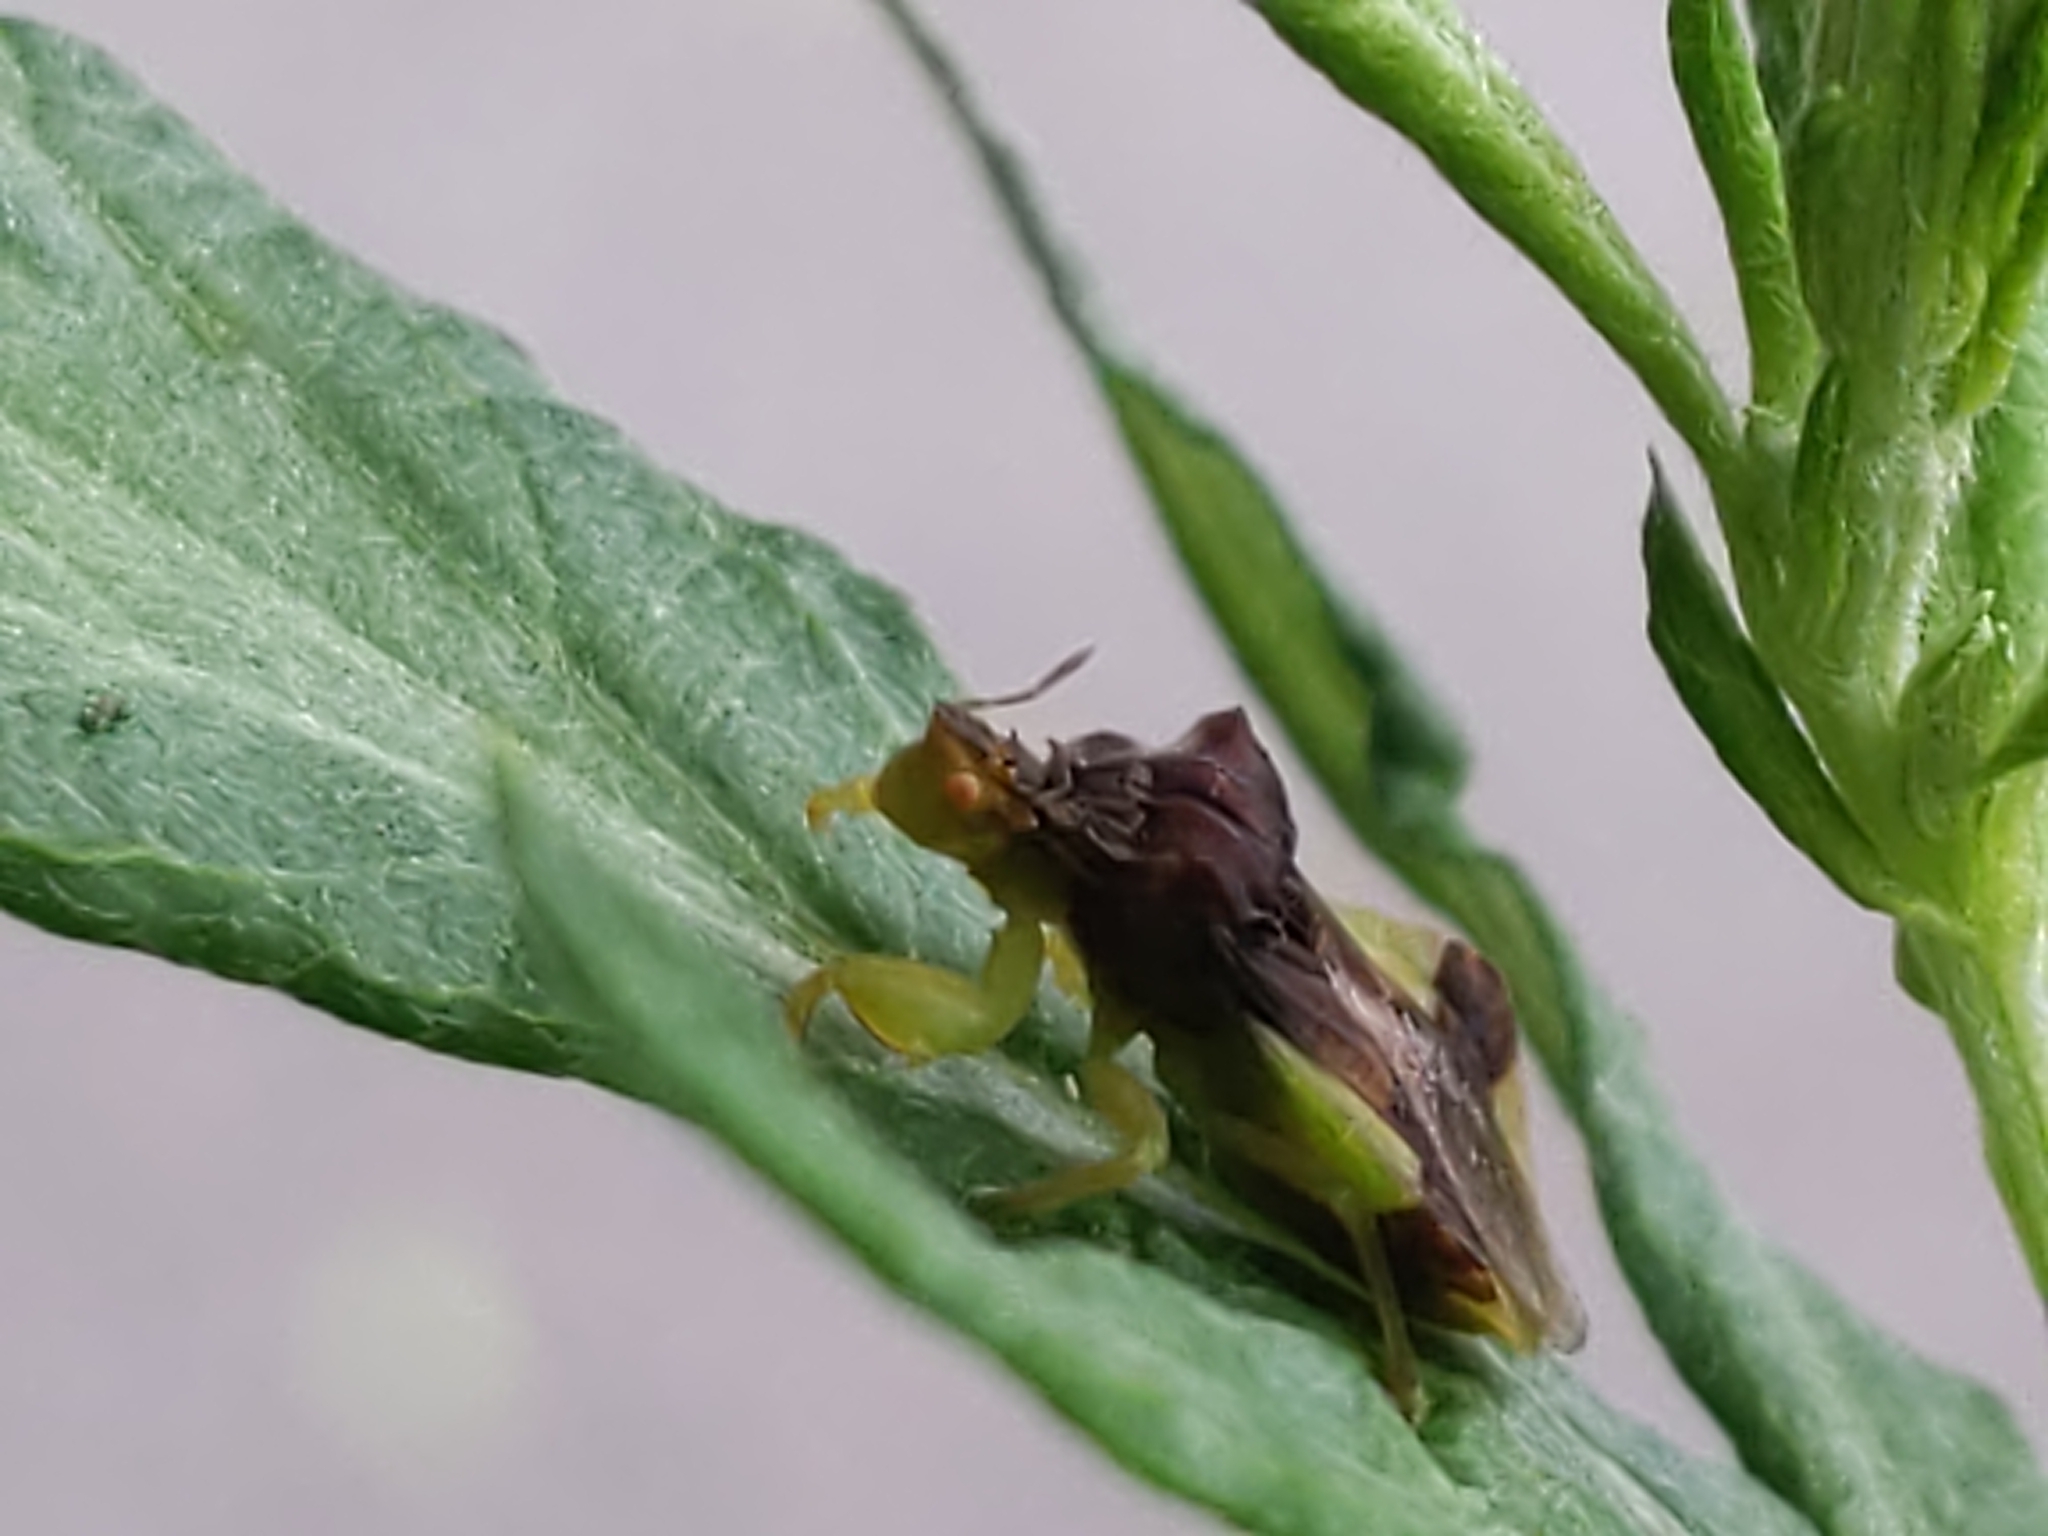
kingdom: Animalia
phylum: Arthropoda
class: Insecta
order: Hemiptera
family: Reduviidae
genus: Phymata
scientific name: Phymata pennsylvanica
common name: Pennsylvania ambush bug
